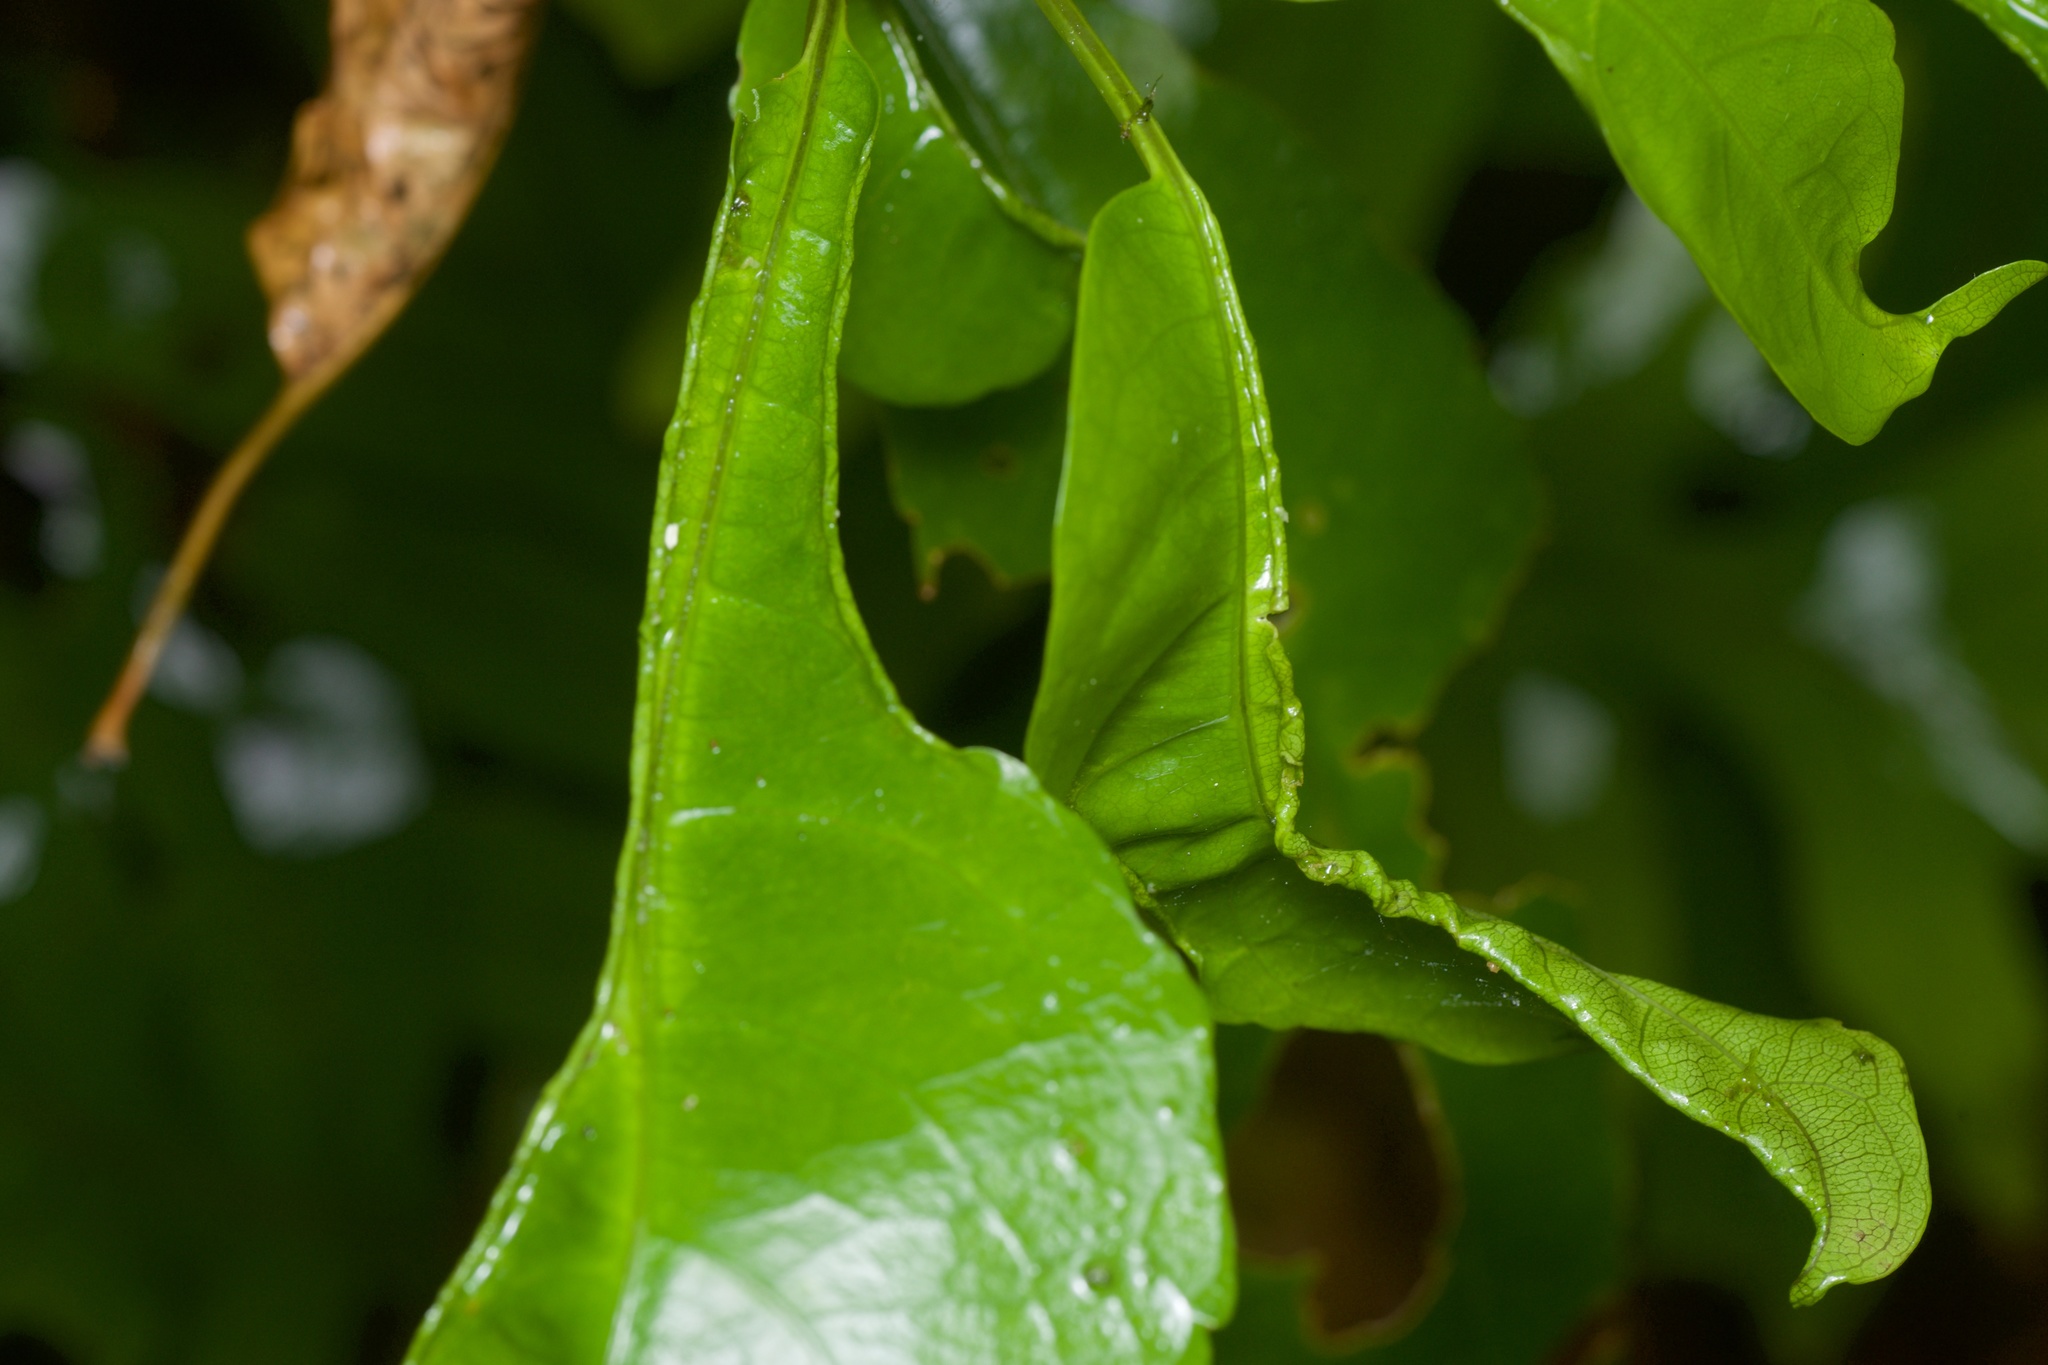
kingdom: Animalia
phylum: Arthropoda
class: Arachnida
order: Trombidiformes
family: Eriophyidae
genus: Aceria
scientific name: Aceria
